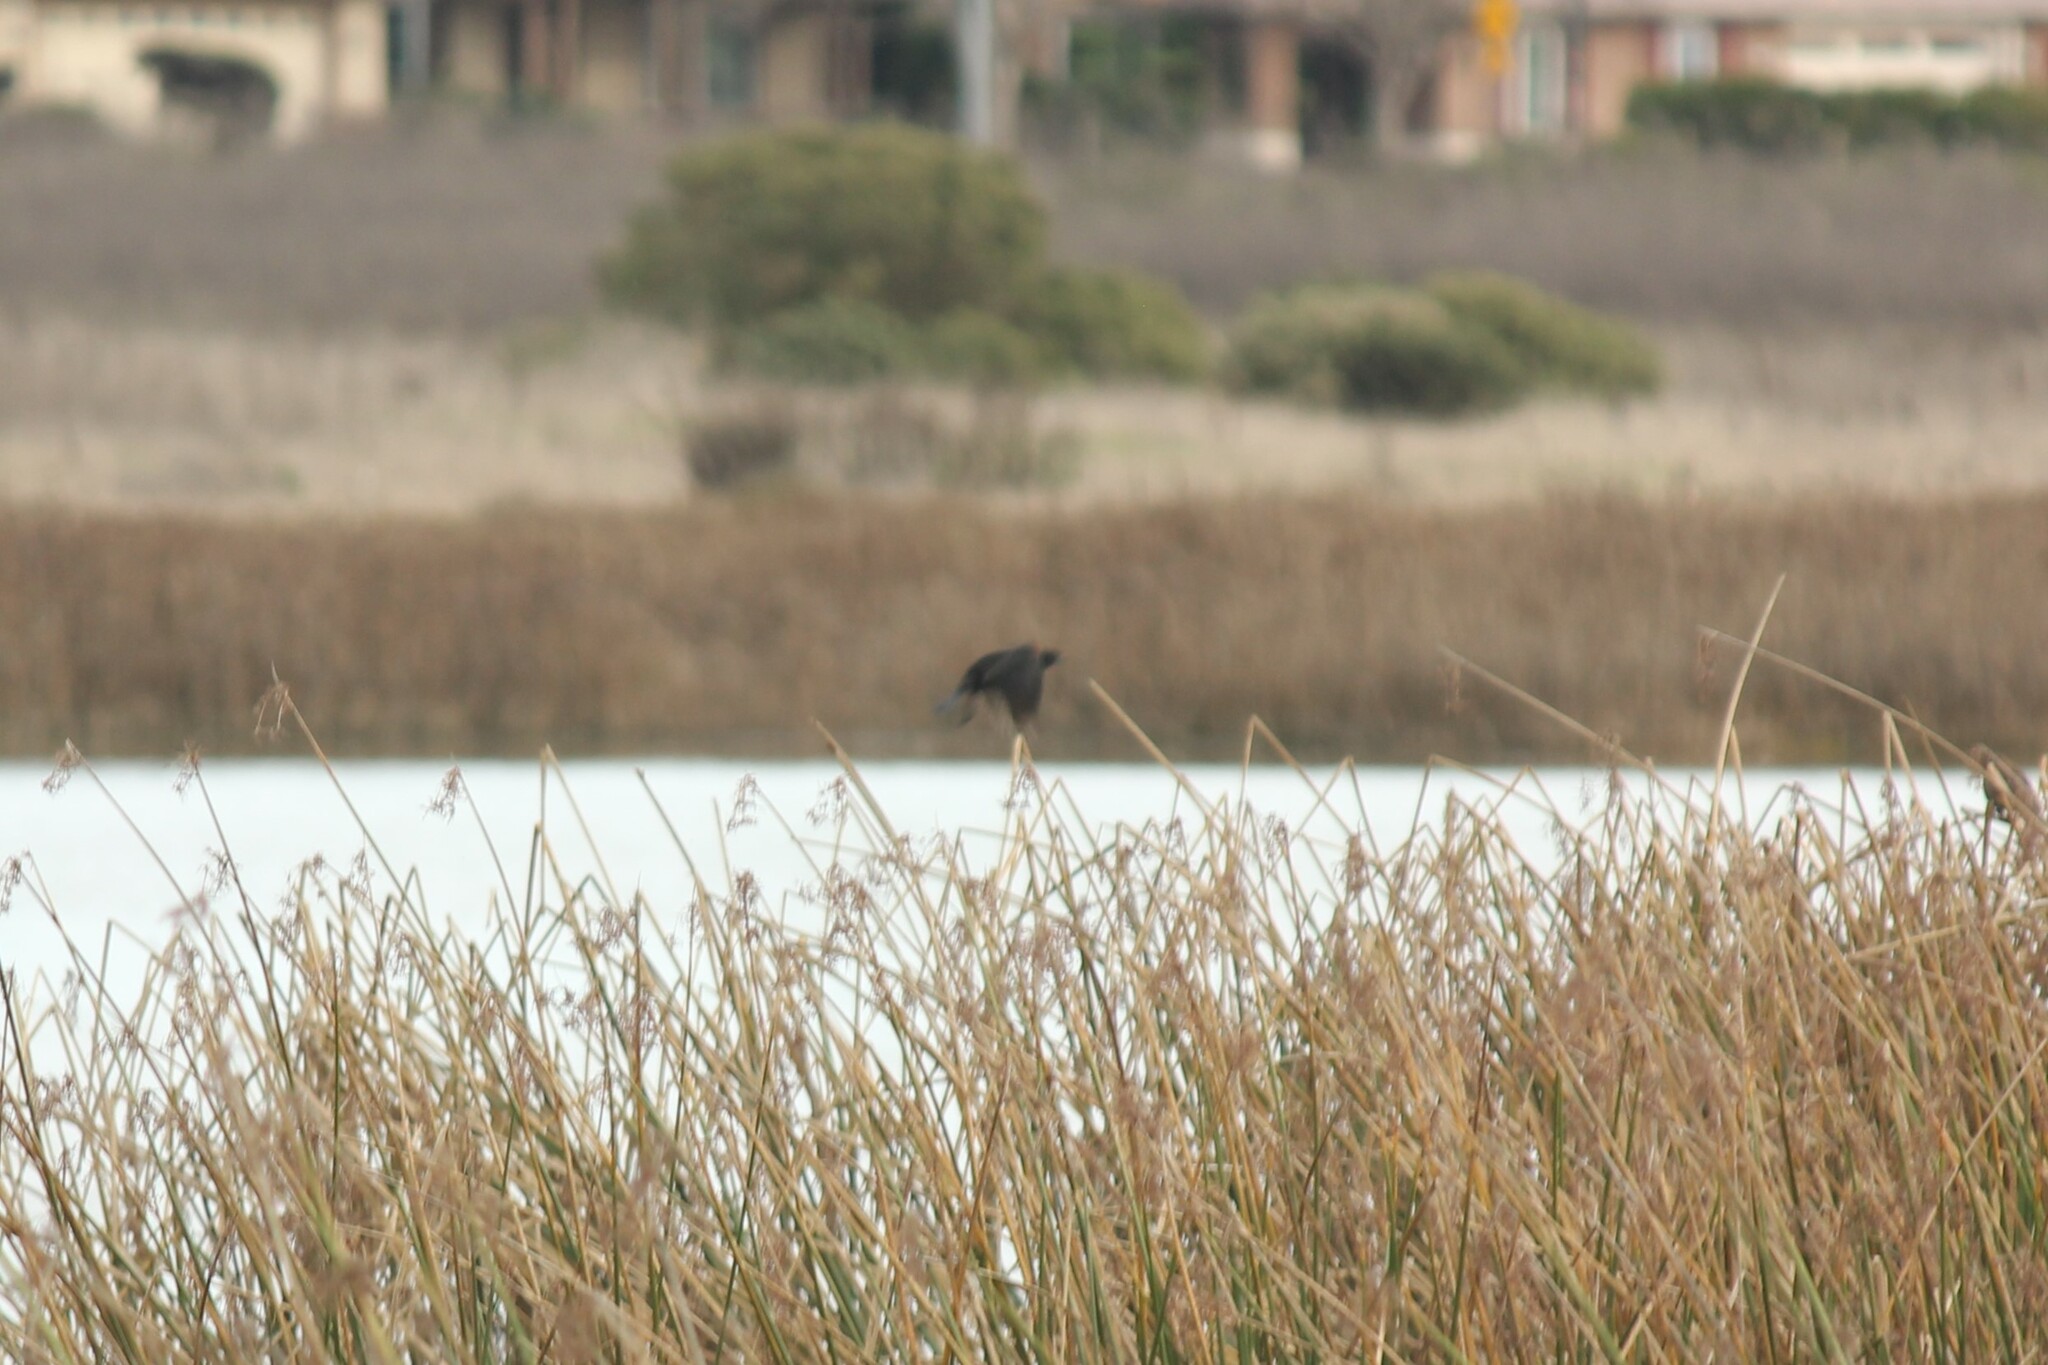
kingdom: Animalia
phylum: Chordata
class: Aves
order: Passeriformes
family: Icteridae
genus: Agelaius
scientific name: Agelaius phoeniceus
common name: Red-winged blackbird
